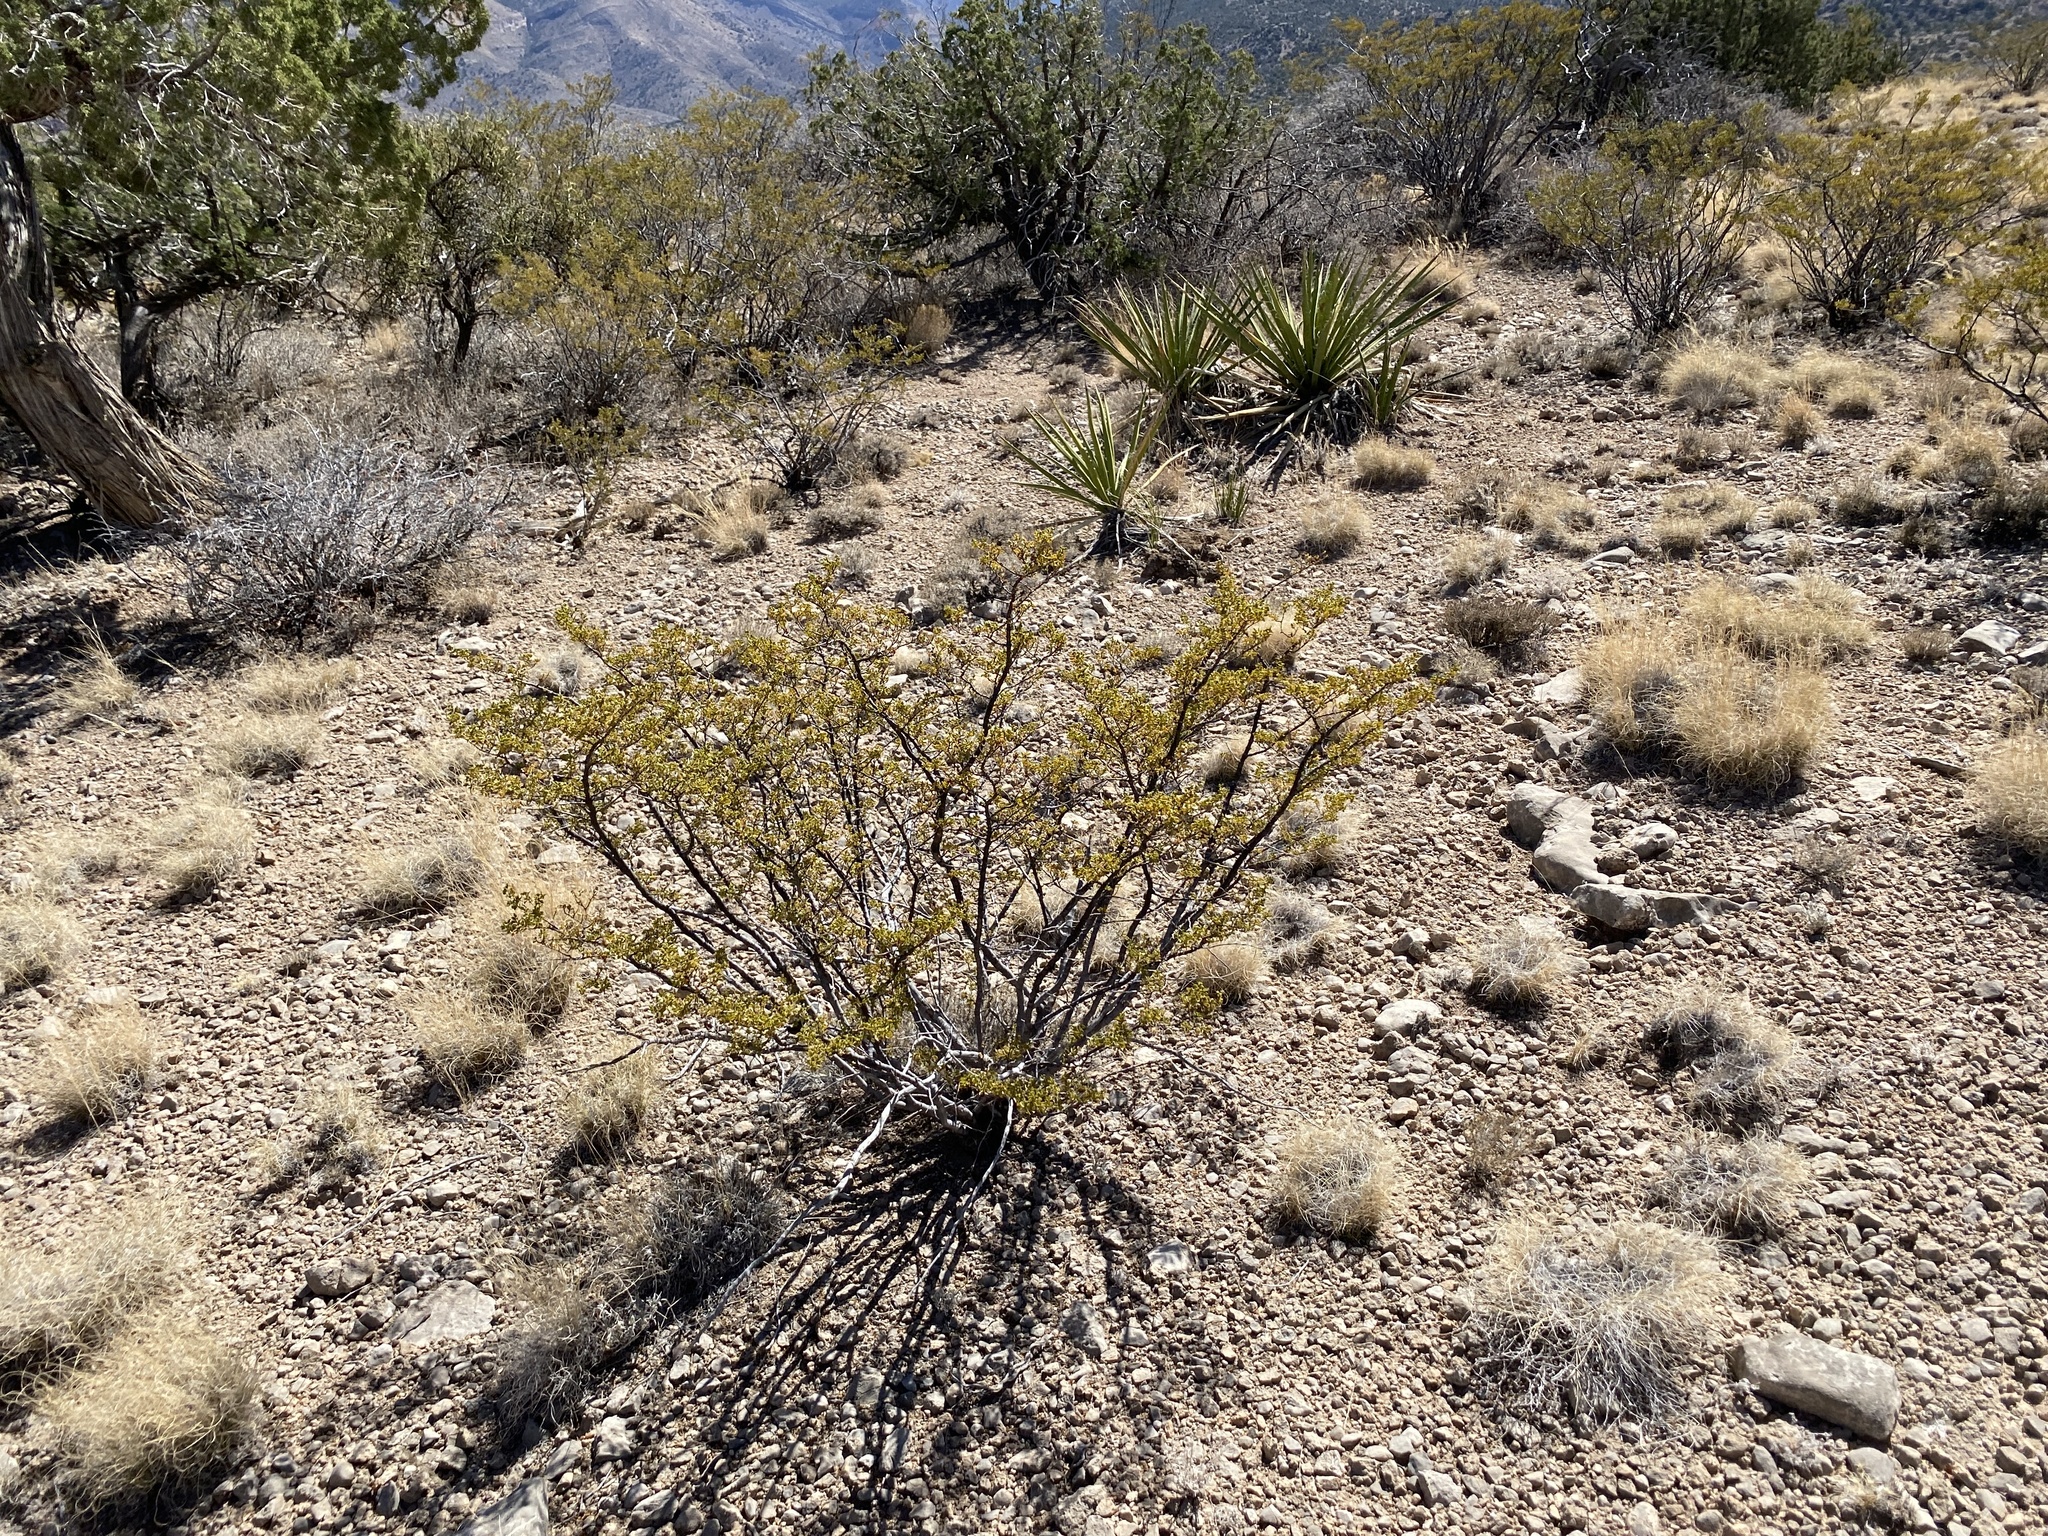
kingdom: Plantae
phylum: Tracheophyta
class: Magnoliopsida
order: Zygophyllales
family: Zygophyllaceae
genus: Larrea
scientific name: Larrea tridentata
